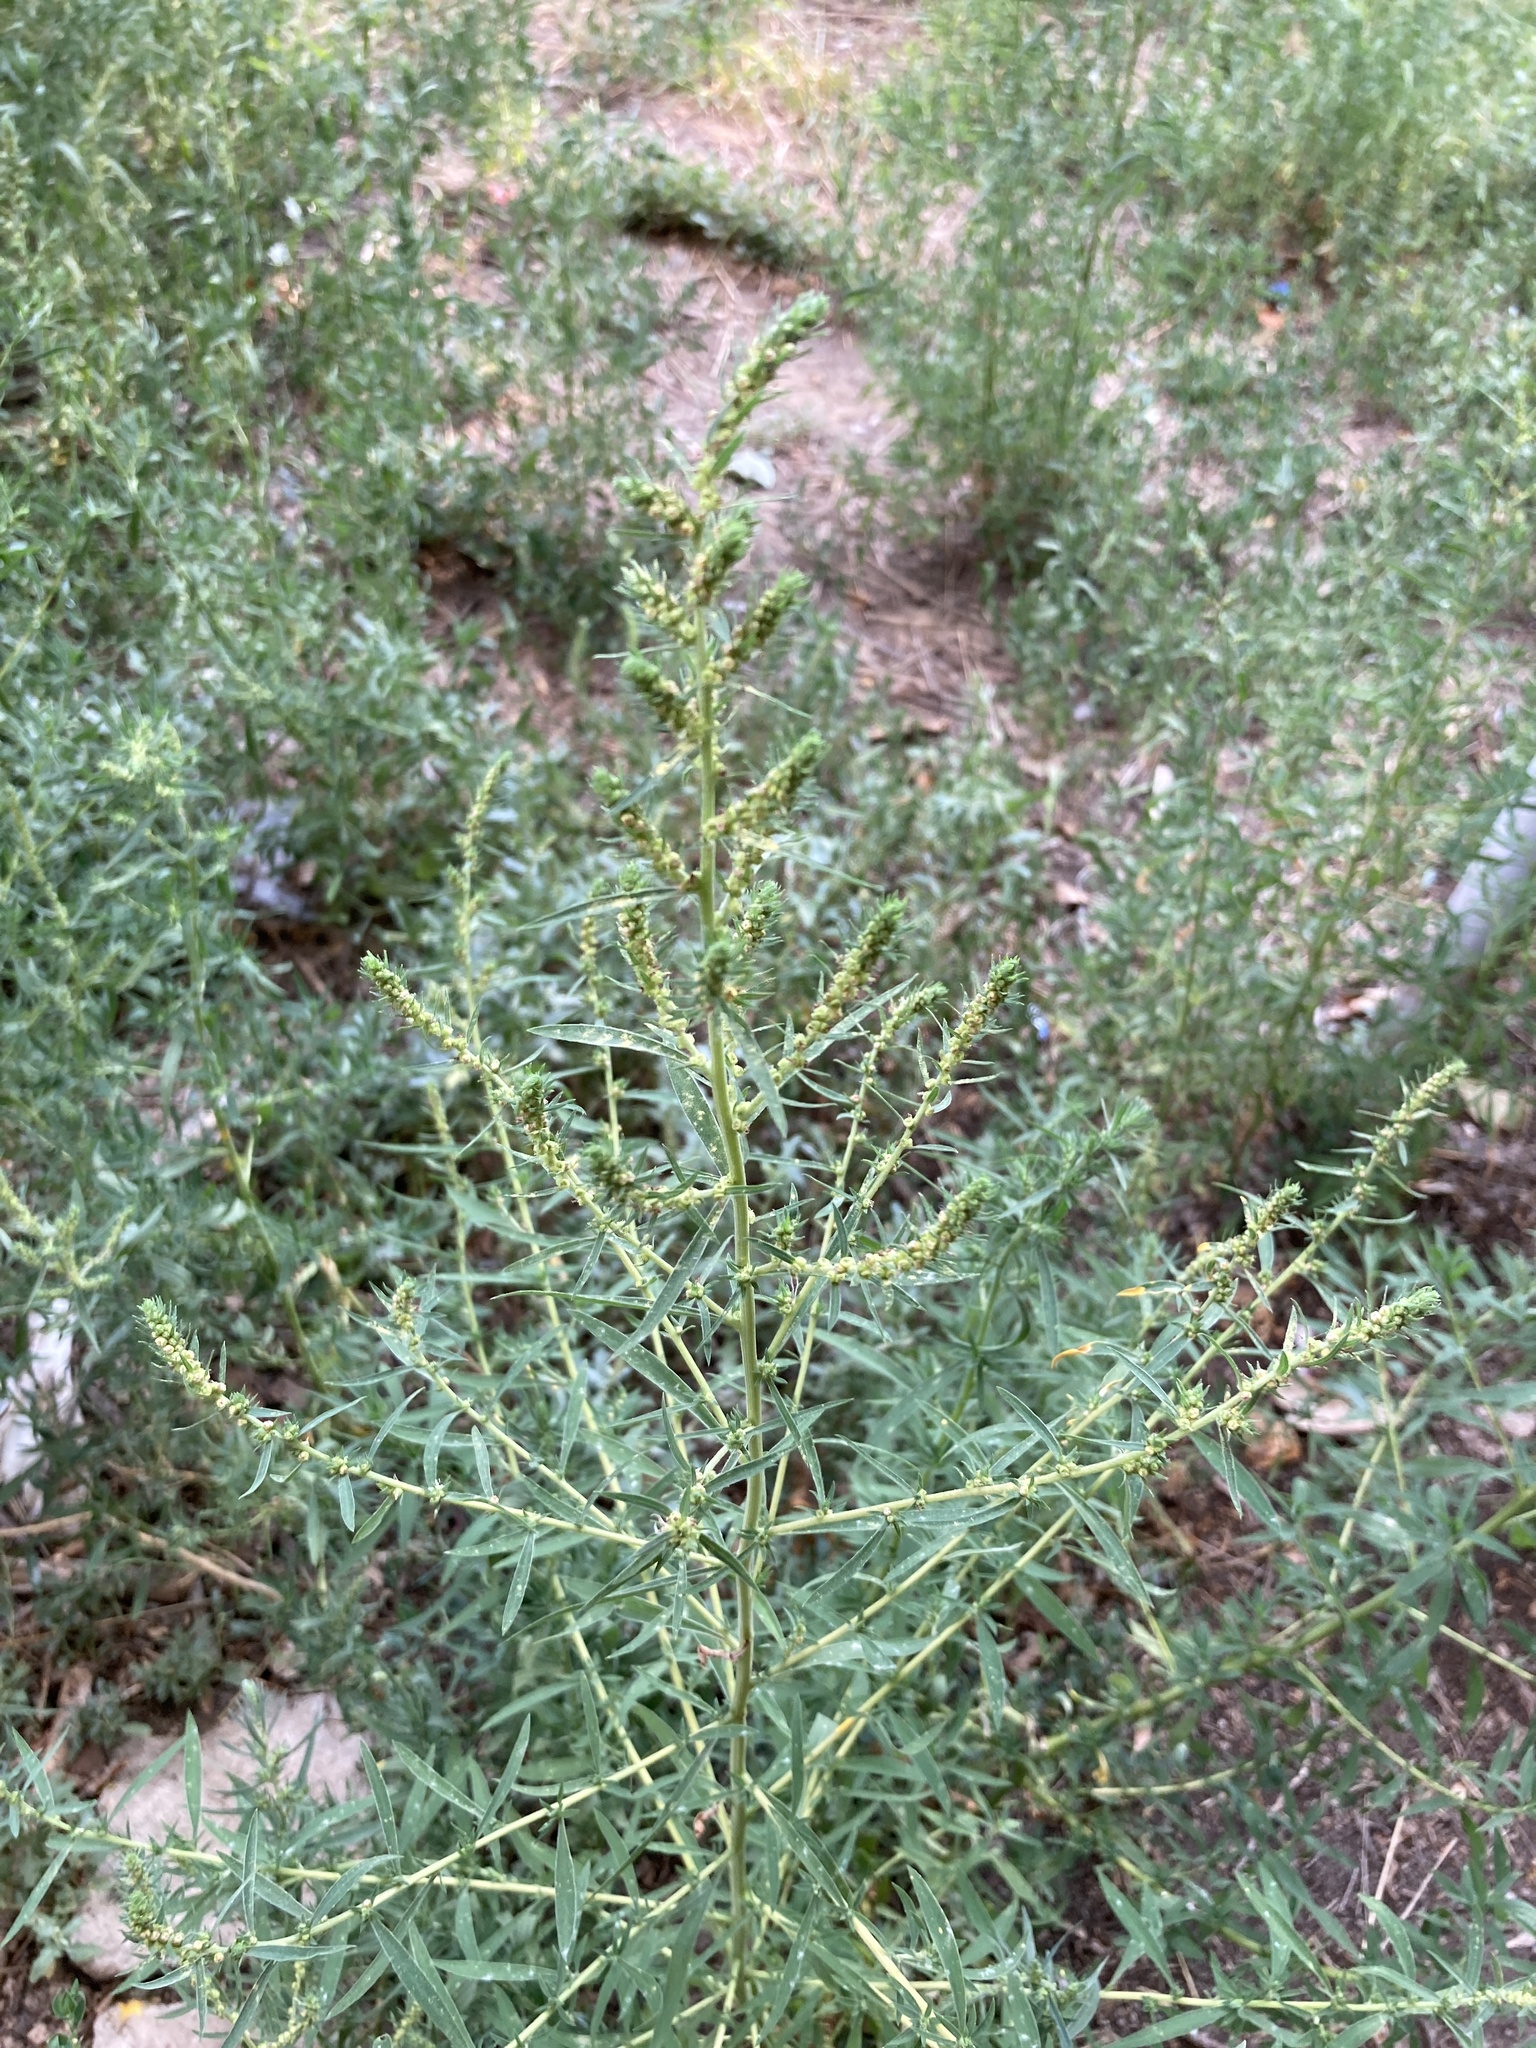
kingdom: Plantae
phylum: Tracheophyta
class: Magnoliopsida
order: Caryophyllales
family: Amaranthaceae
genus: Bassia
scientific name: Bassia scoparia
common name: Belvedere
